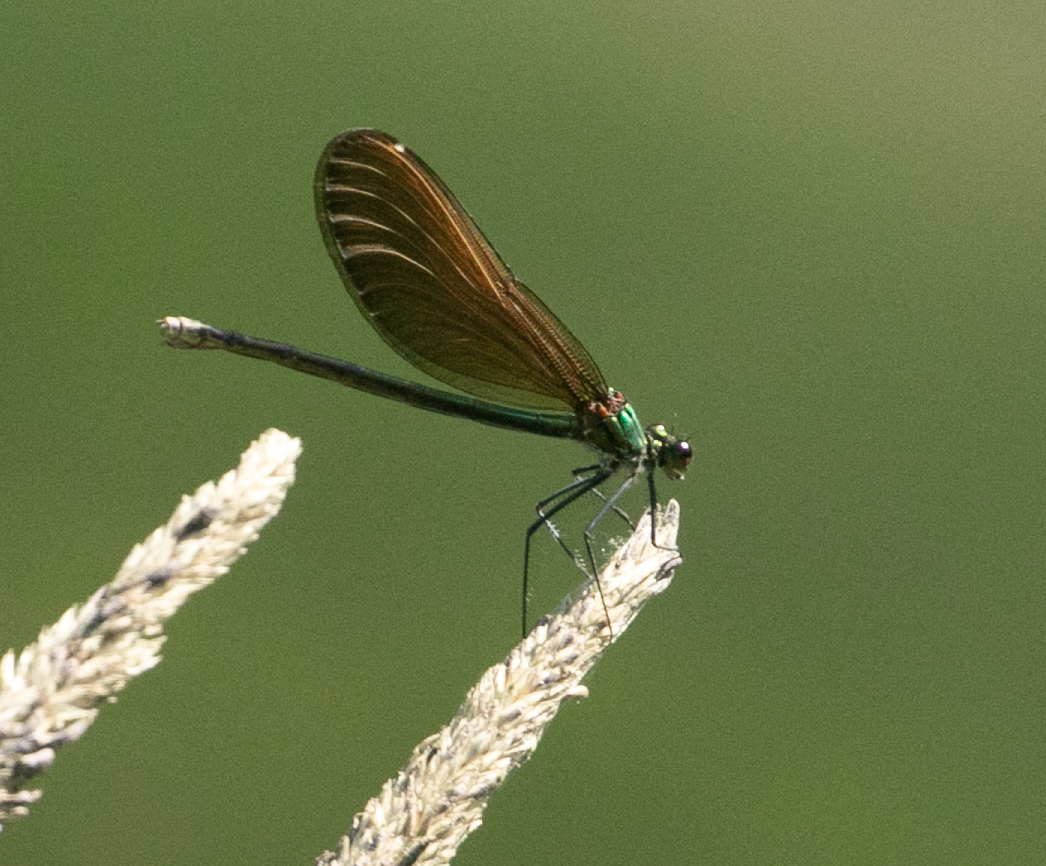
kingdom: Animalia
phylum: Arthropoda
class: Insecta
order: Odonata
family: Calopterygidae
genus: Calopteryx
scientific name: Calopteryx virgo
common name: Beautiful demoiselle
